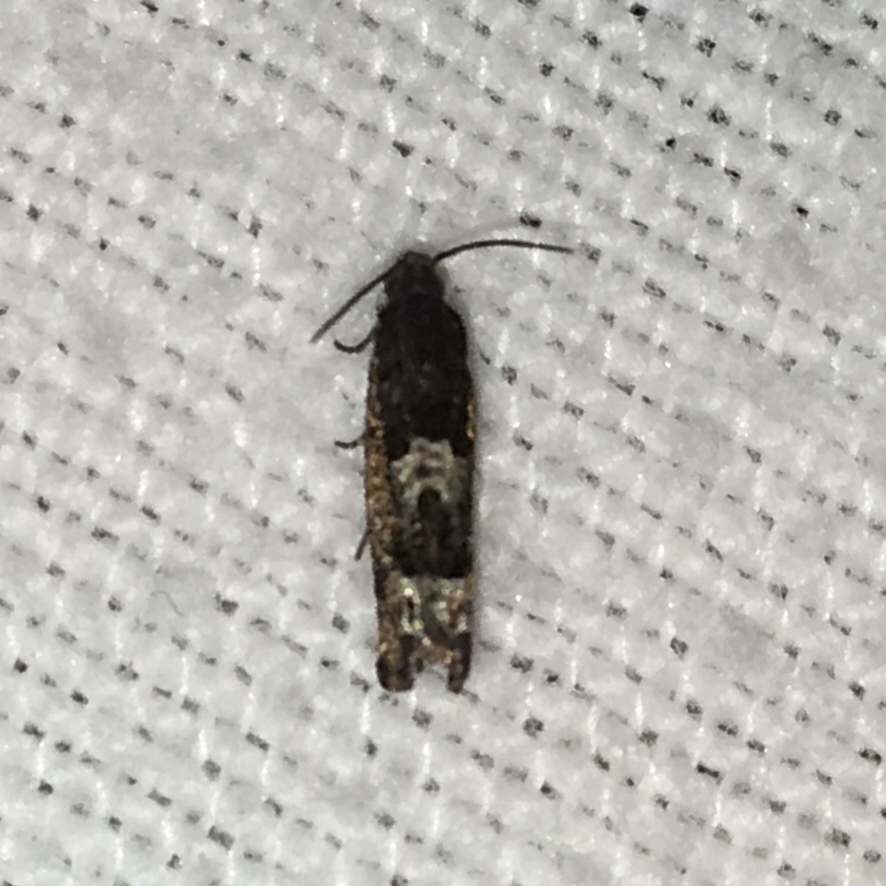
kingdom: Animalia
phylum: Arthropoda
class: Insecta
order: Lepidoptera
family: Tortricidae
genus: Eucosma
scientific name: Eucosma parmatana
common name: Aster eucosma moth
